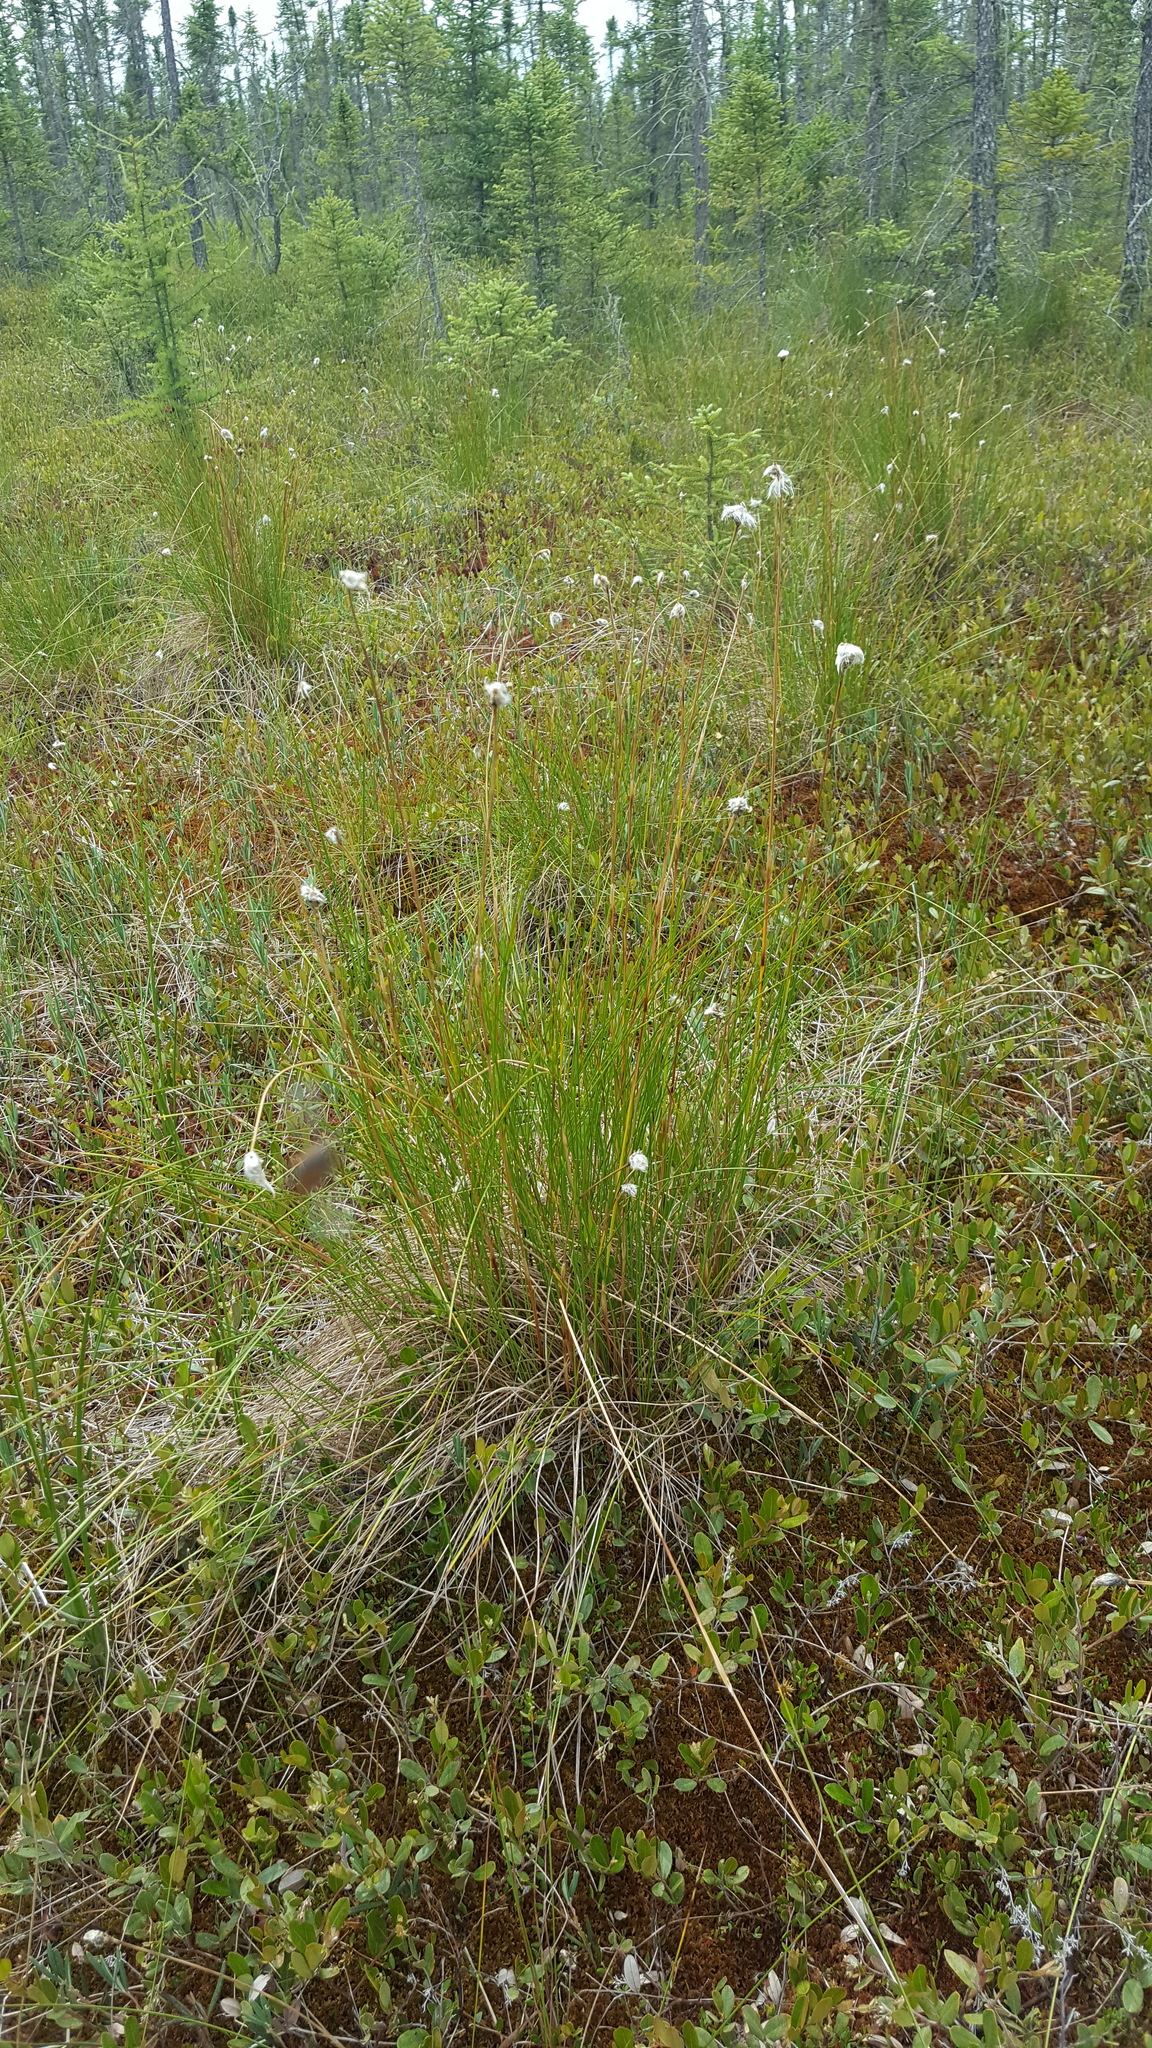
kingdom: Plantae
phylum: Tracheophyta
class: Liliopsida
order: Poales
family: Cyperaceae
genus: Eriophorum
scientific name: Eriophorum vaginatum
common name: Hare's-tail cottongrass
